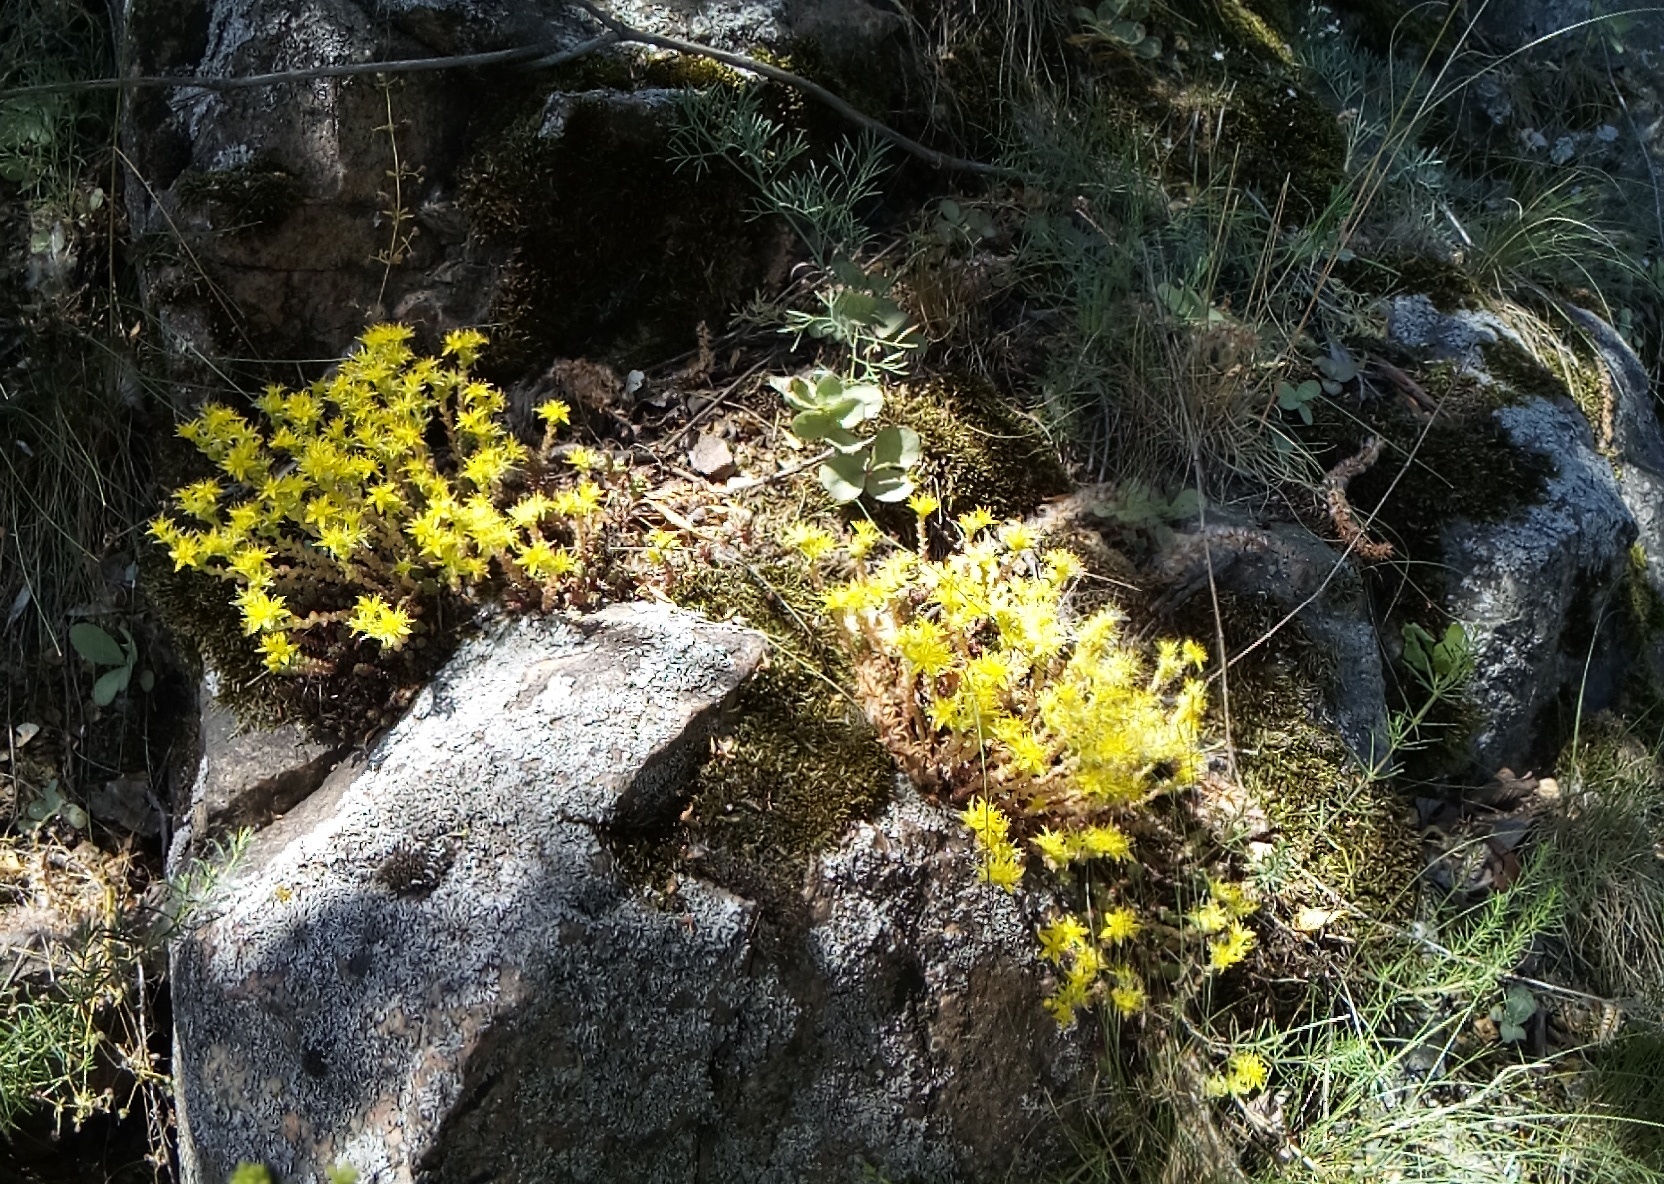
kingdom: Plantae
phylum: Tracheophyta
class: Magnoliopsida
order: Saxifragales
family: Crassulaceae
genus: Sedum
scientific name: Sedum acre
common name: Biting stonecrop
